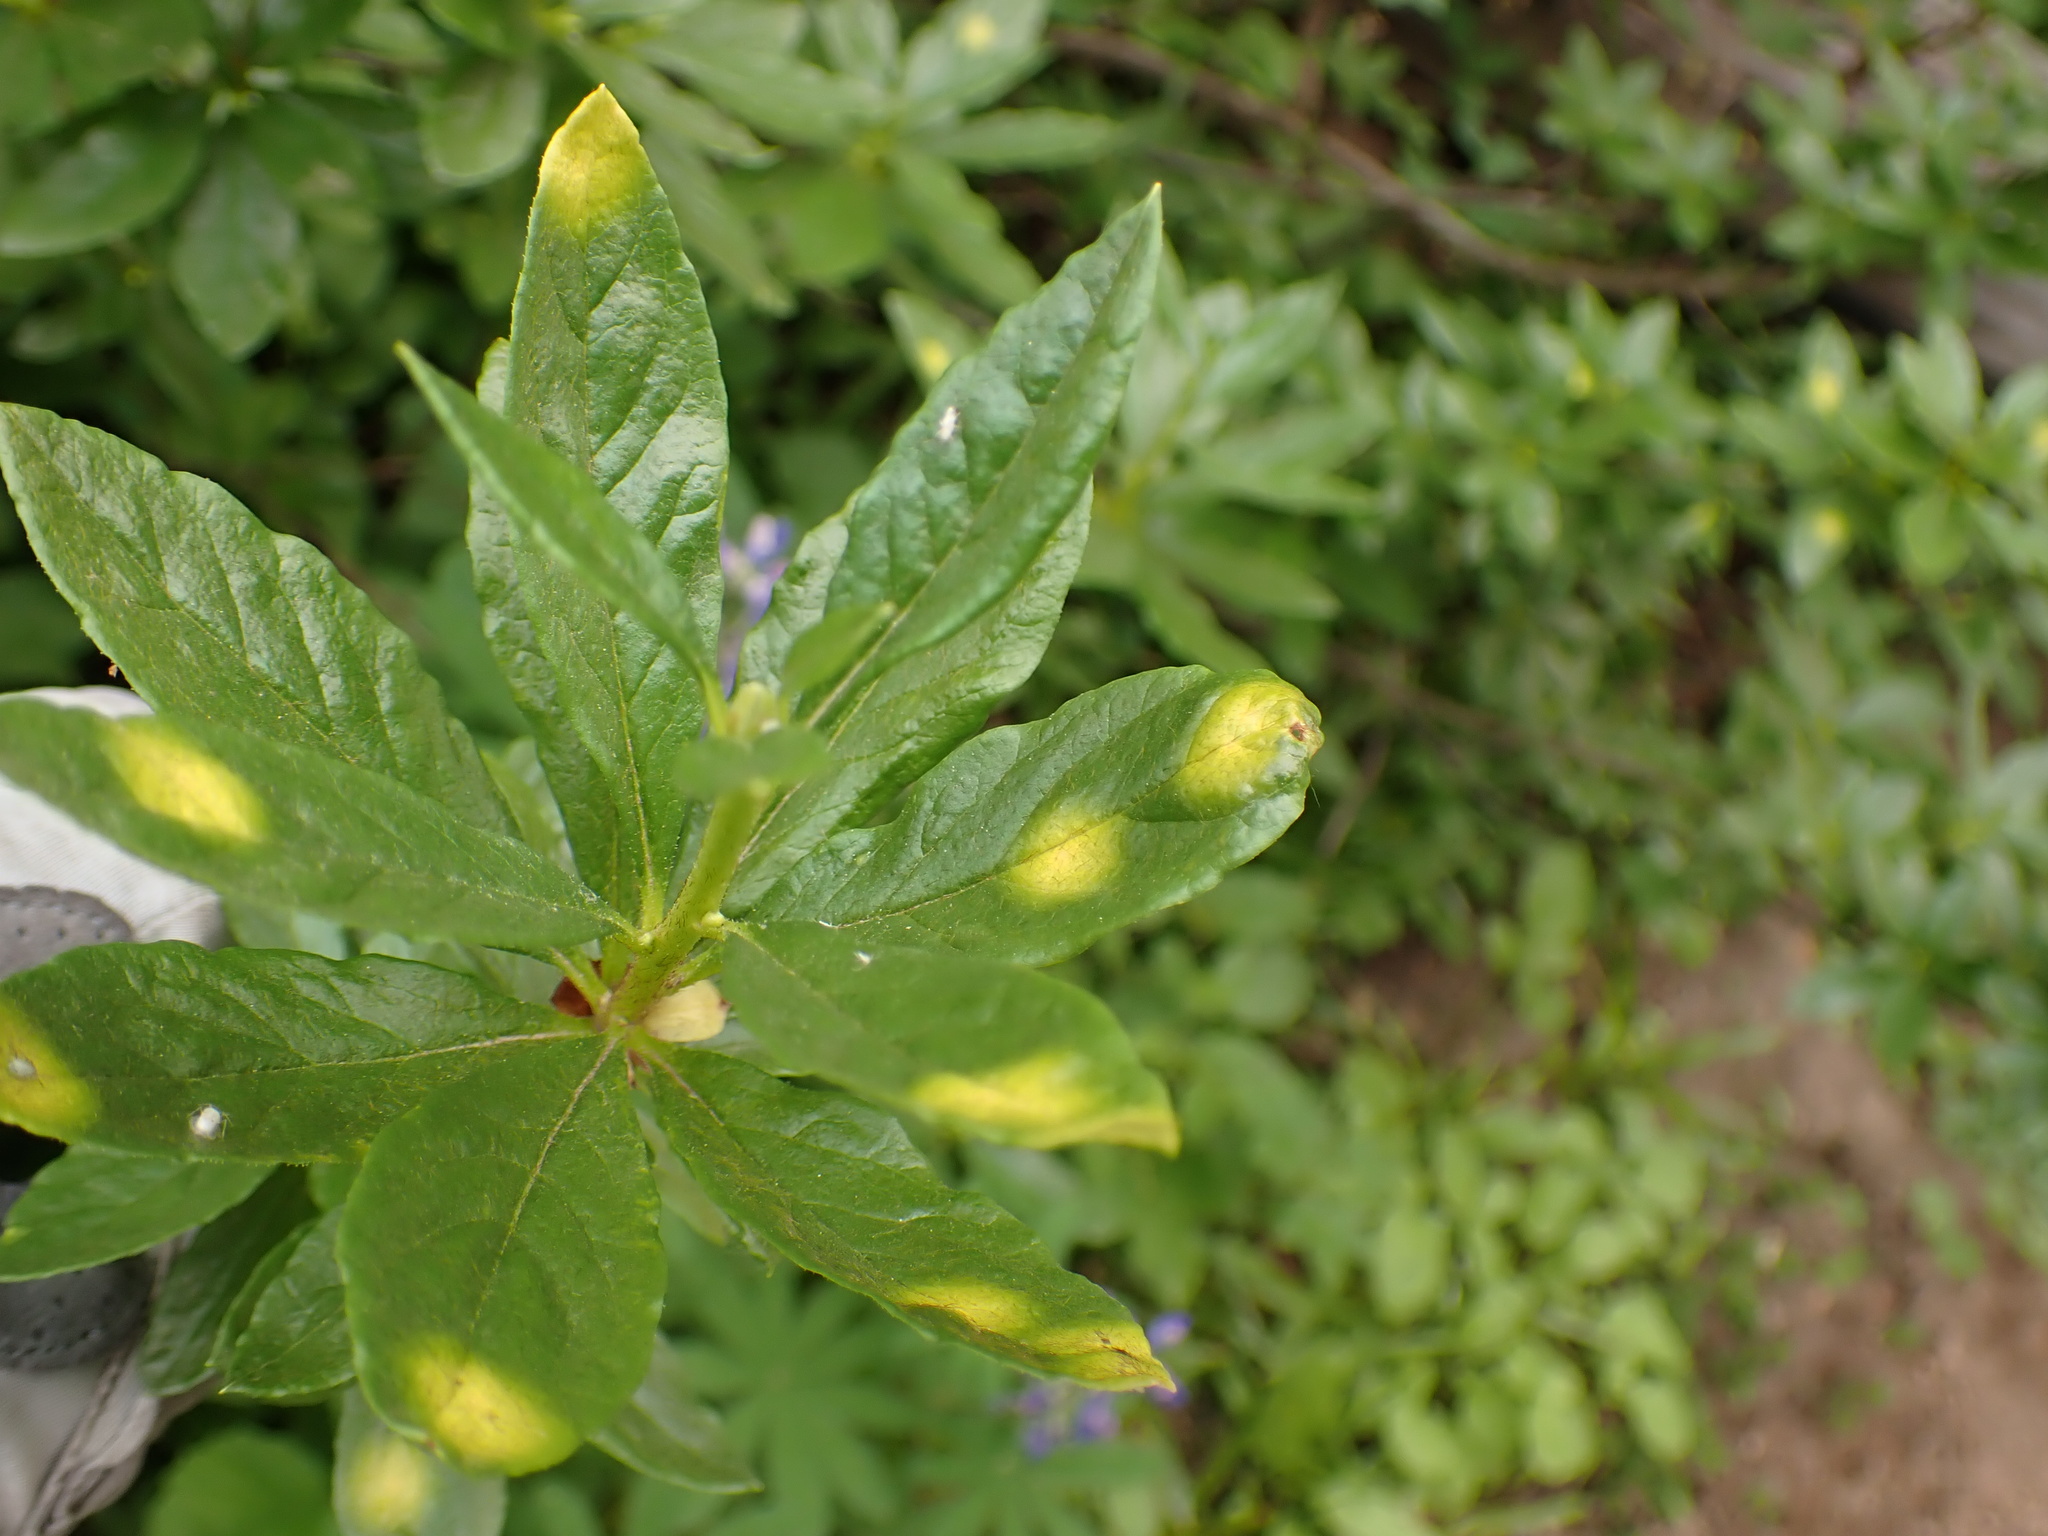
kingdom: Fungi
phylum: Basidiomycota
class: Exobasidiomycetes
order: Exobasidiales
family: Exobasidiaceae
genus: Exobasidium
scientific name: Exobasidium burtii
